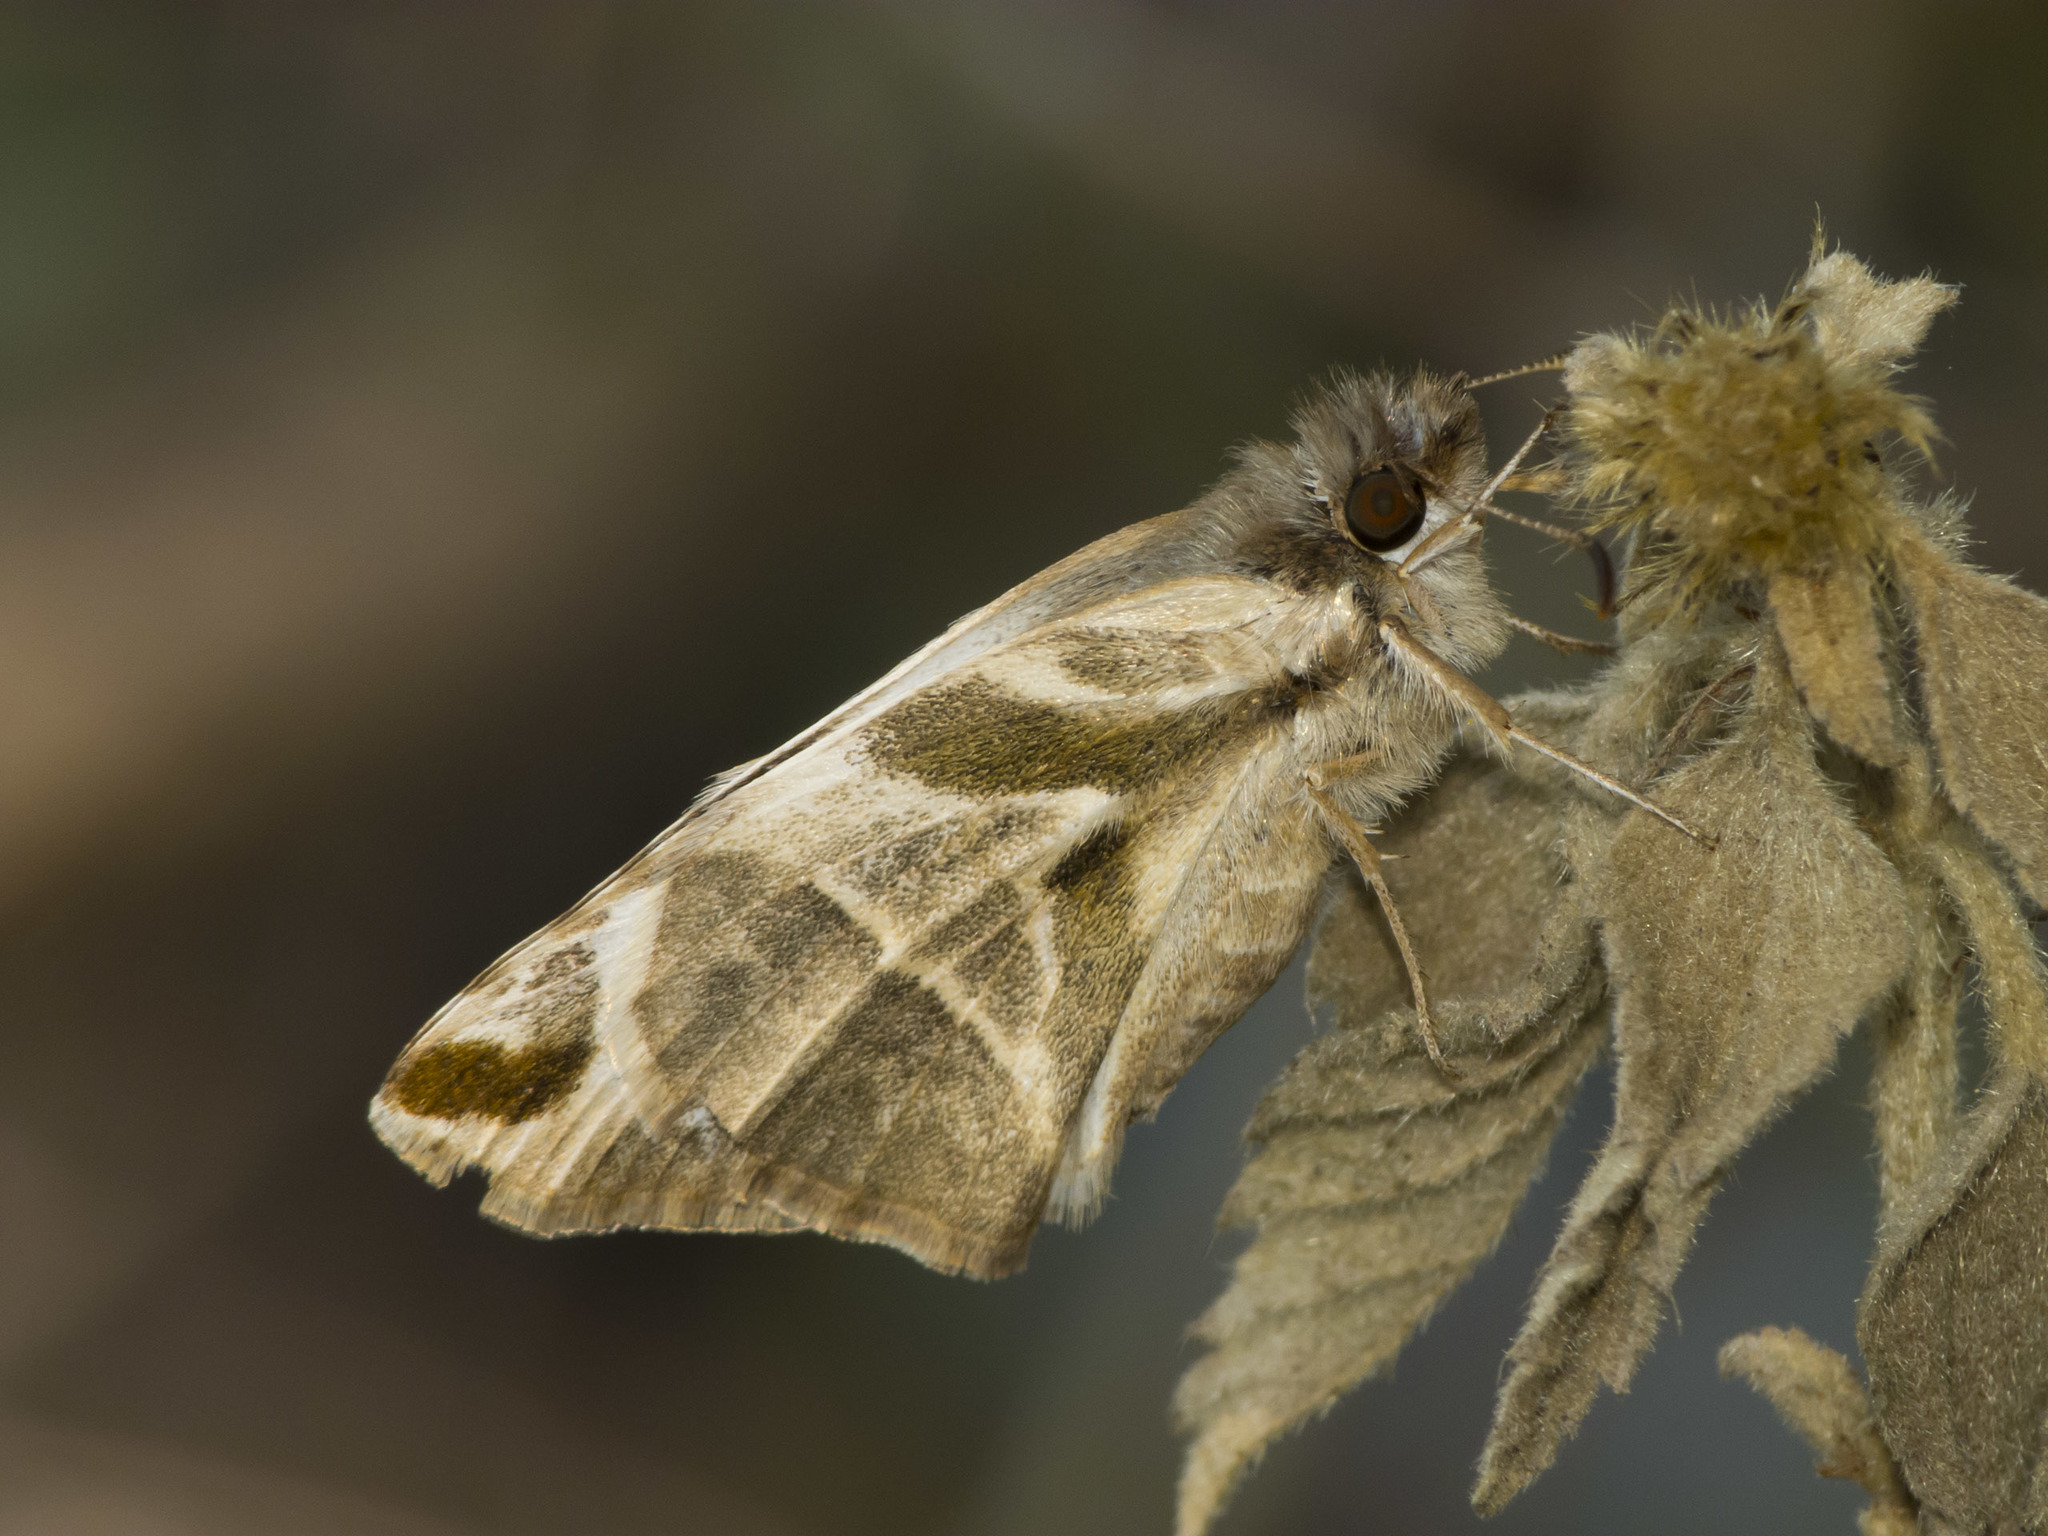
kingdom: Animalia
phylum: Arthropoda
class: Insecta
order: Lepidoptera
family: Hesperiidae
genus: Heliopetes
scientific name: Heliopetes laviana
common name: Laviana white-skipper
